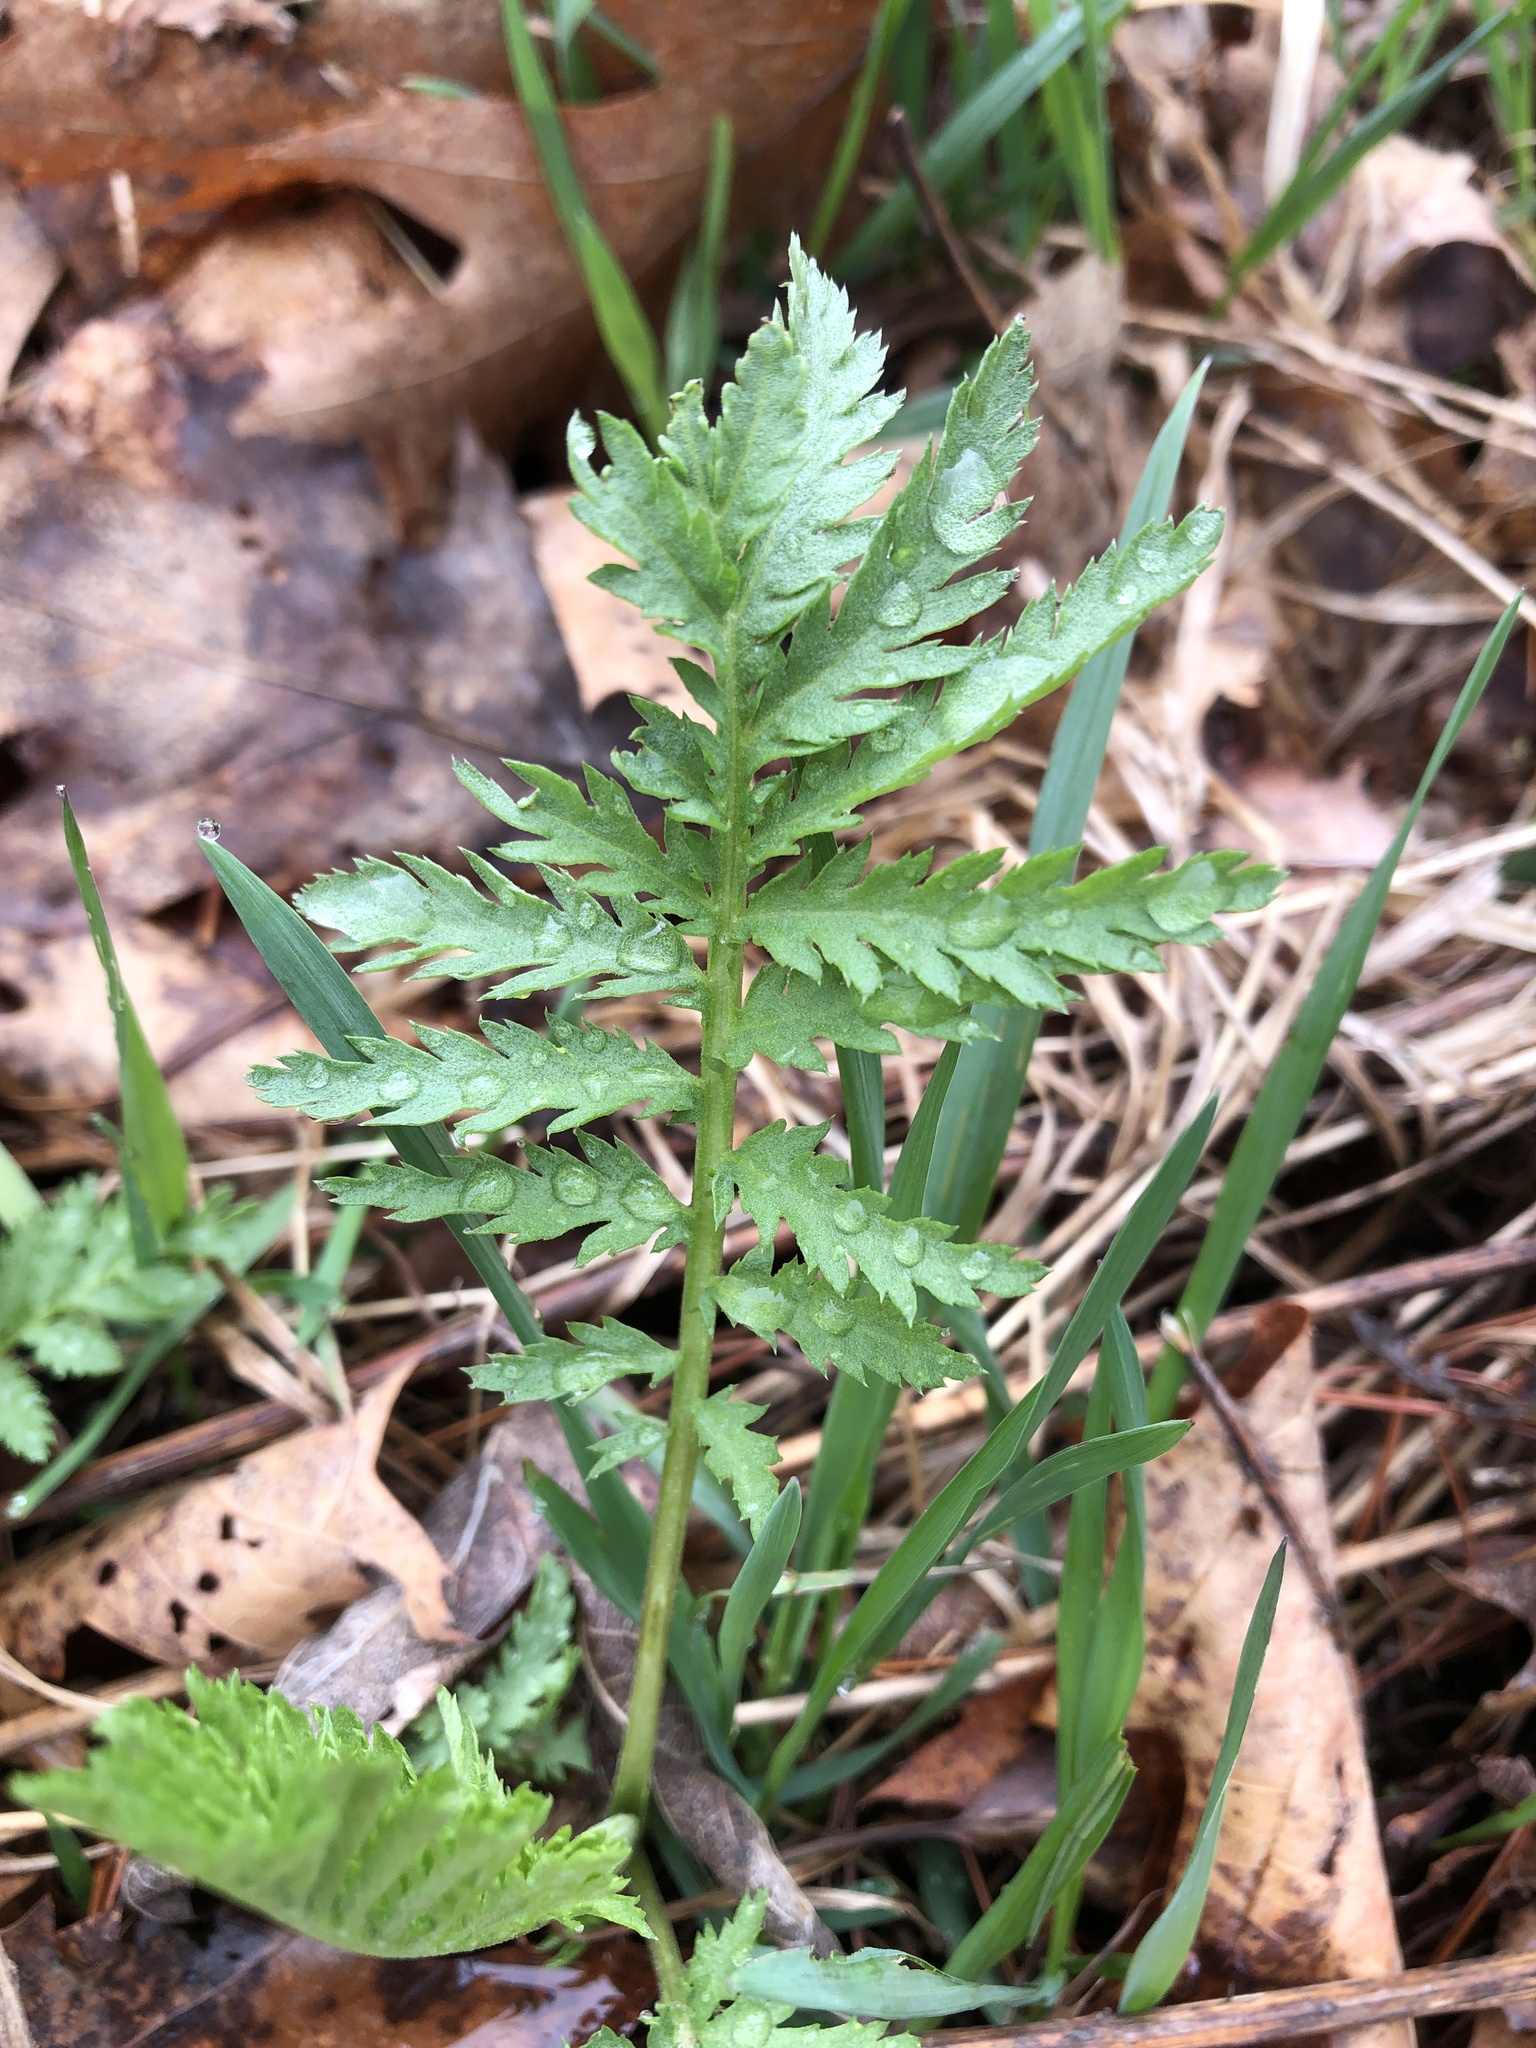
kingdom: Plantae
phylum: Tracheophyta
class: Magnoliopsida
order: Asterales
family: Asteraceae
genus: Tanacetum
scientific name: Tanacetum vulgare
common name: Common tansy
